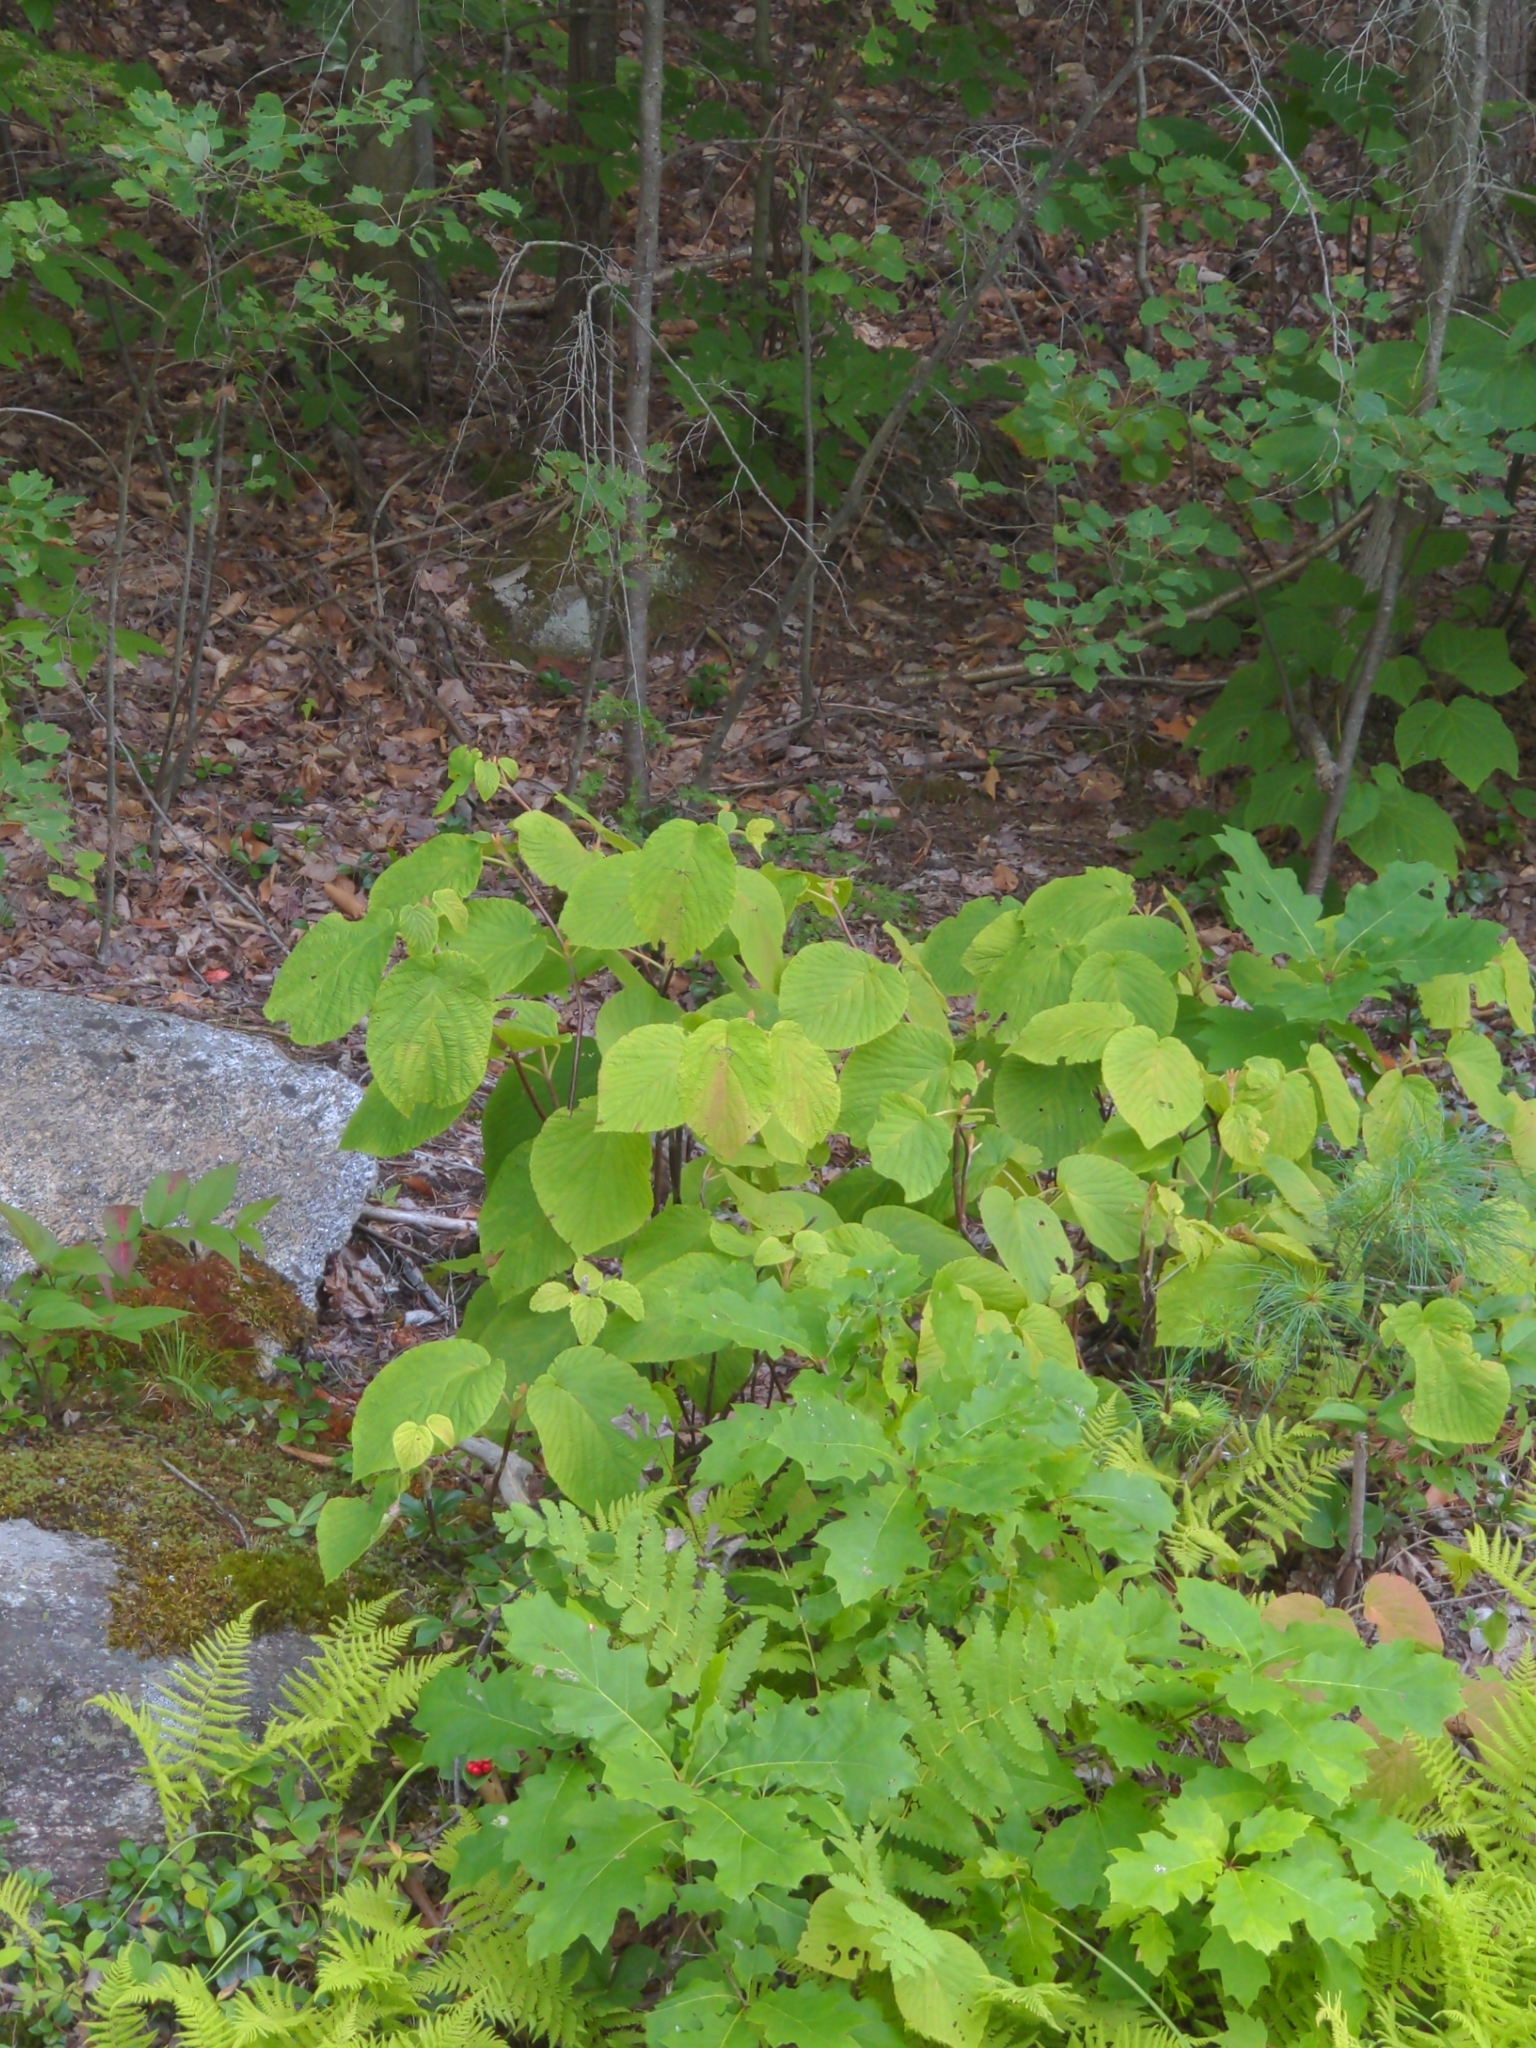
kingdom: Plantae
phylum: Tracheophyta
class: Magnoliopsida
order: Dipsacales
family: Viburnaceae
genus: Viburnum
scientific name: Viburnum lantanoides
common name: Hobblebush
